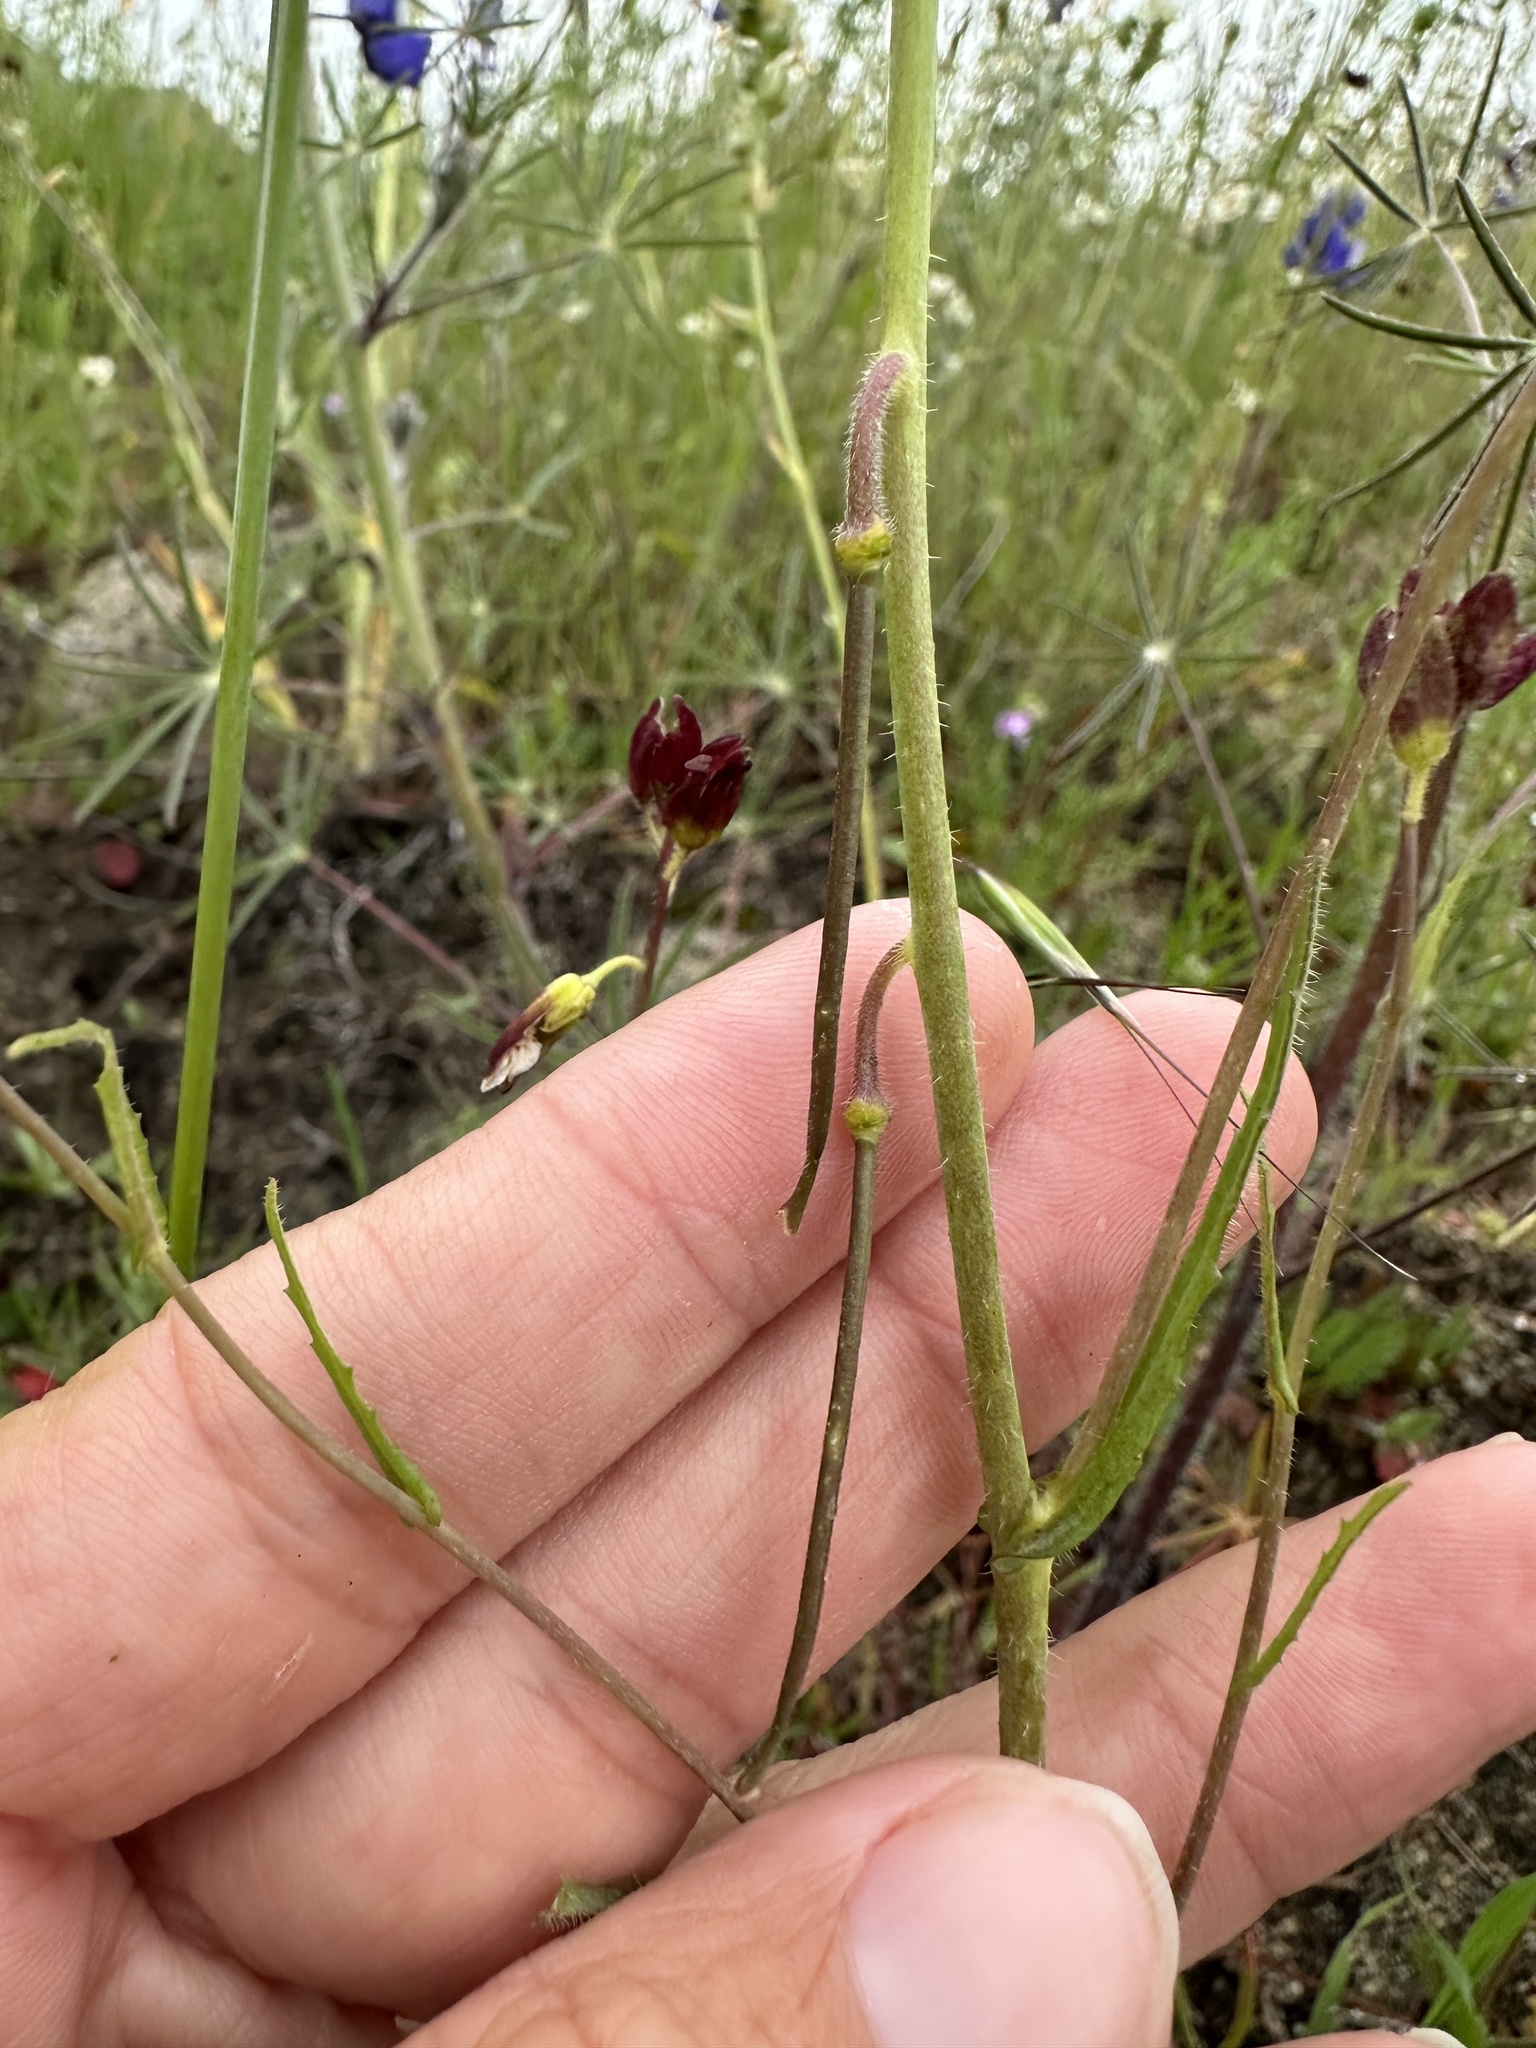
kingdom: Plantae
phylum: Tracheophyta
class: Magnoliopsida
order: Brassicales
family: Brassicaceae
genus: Streptanthus
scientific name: Streptanthus coulteri
